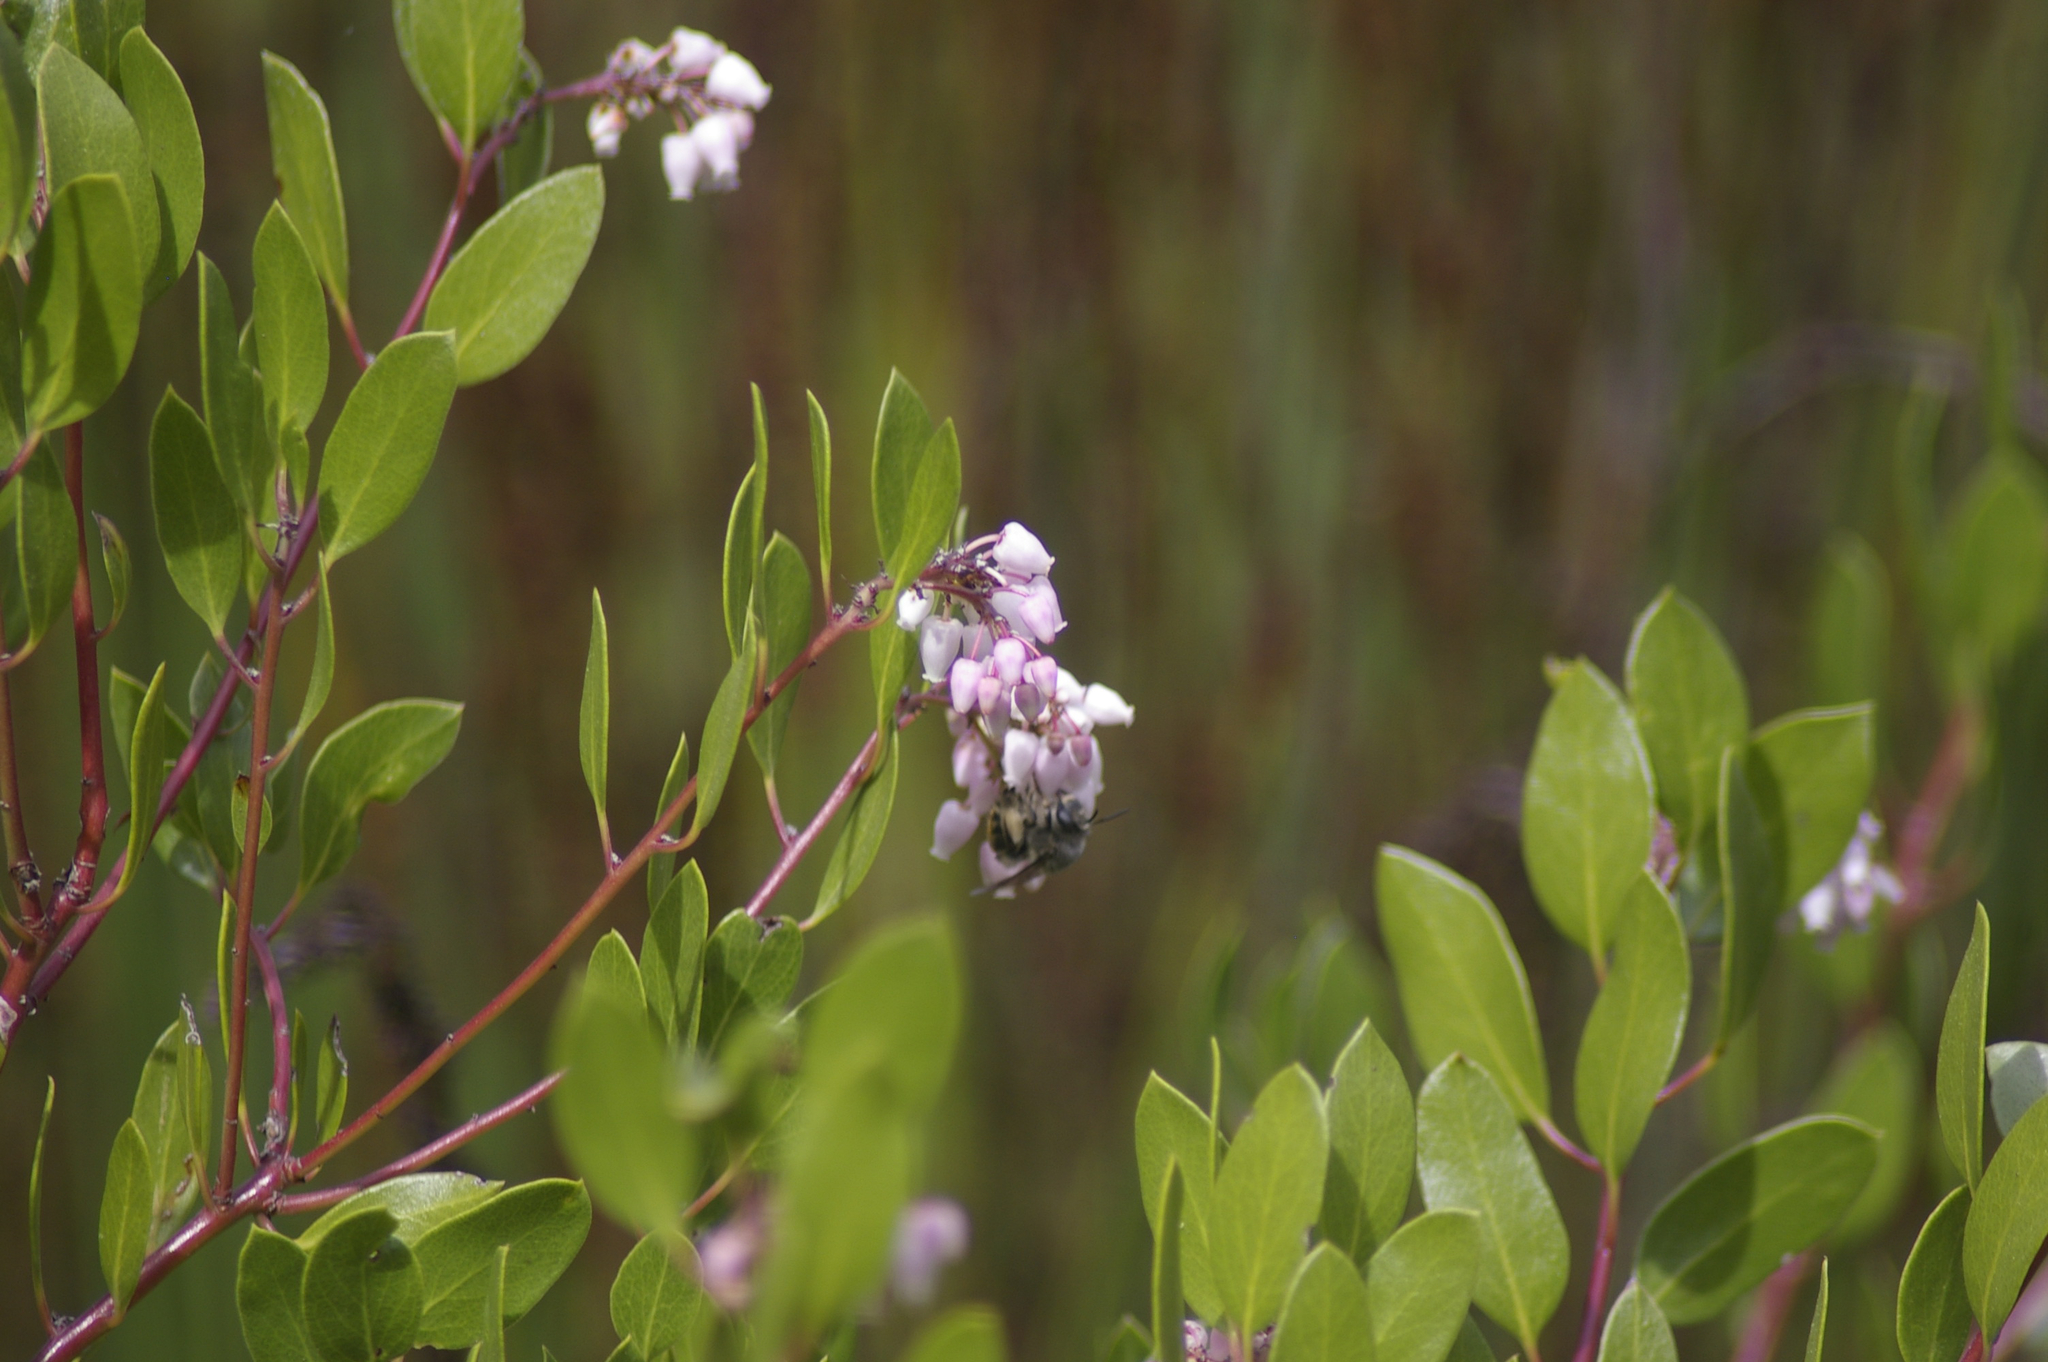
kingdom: Animalia
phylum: Arthropoda
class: Insecta
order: Hymenoptera
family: Apidae
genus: Bombus
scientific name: Bombus melanopygus
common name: Black tail bumble bee
